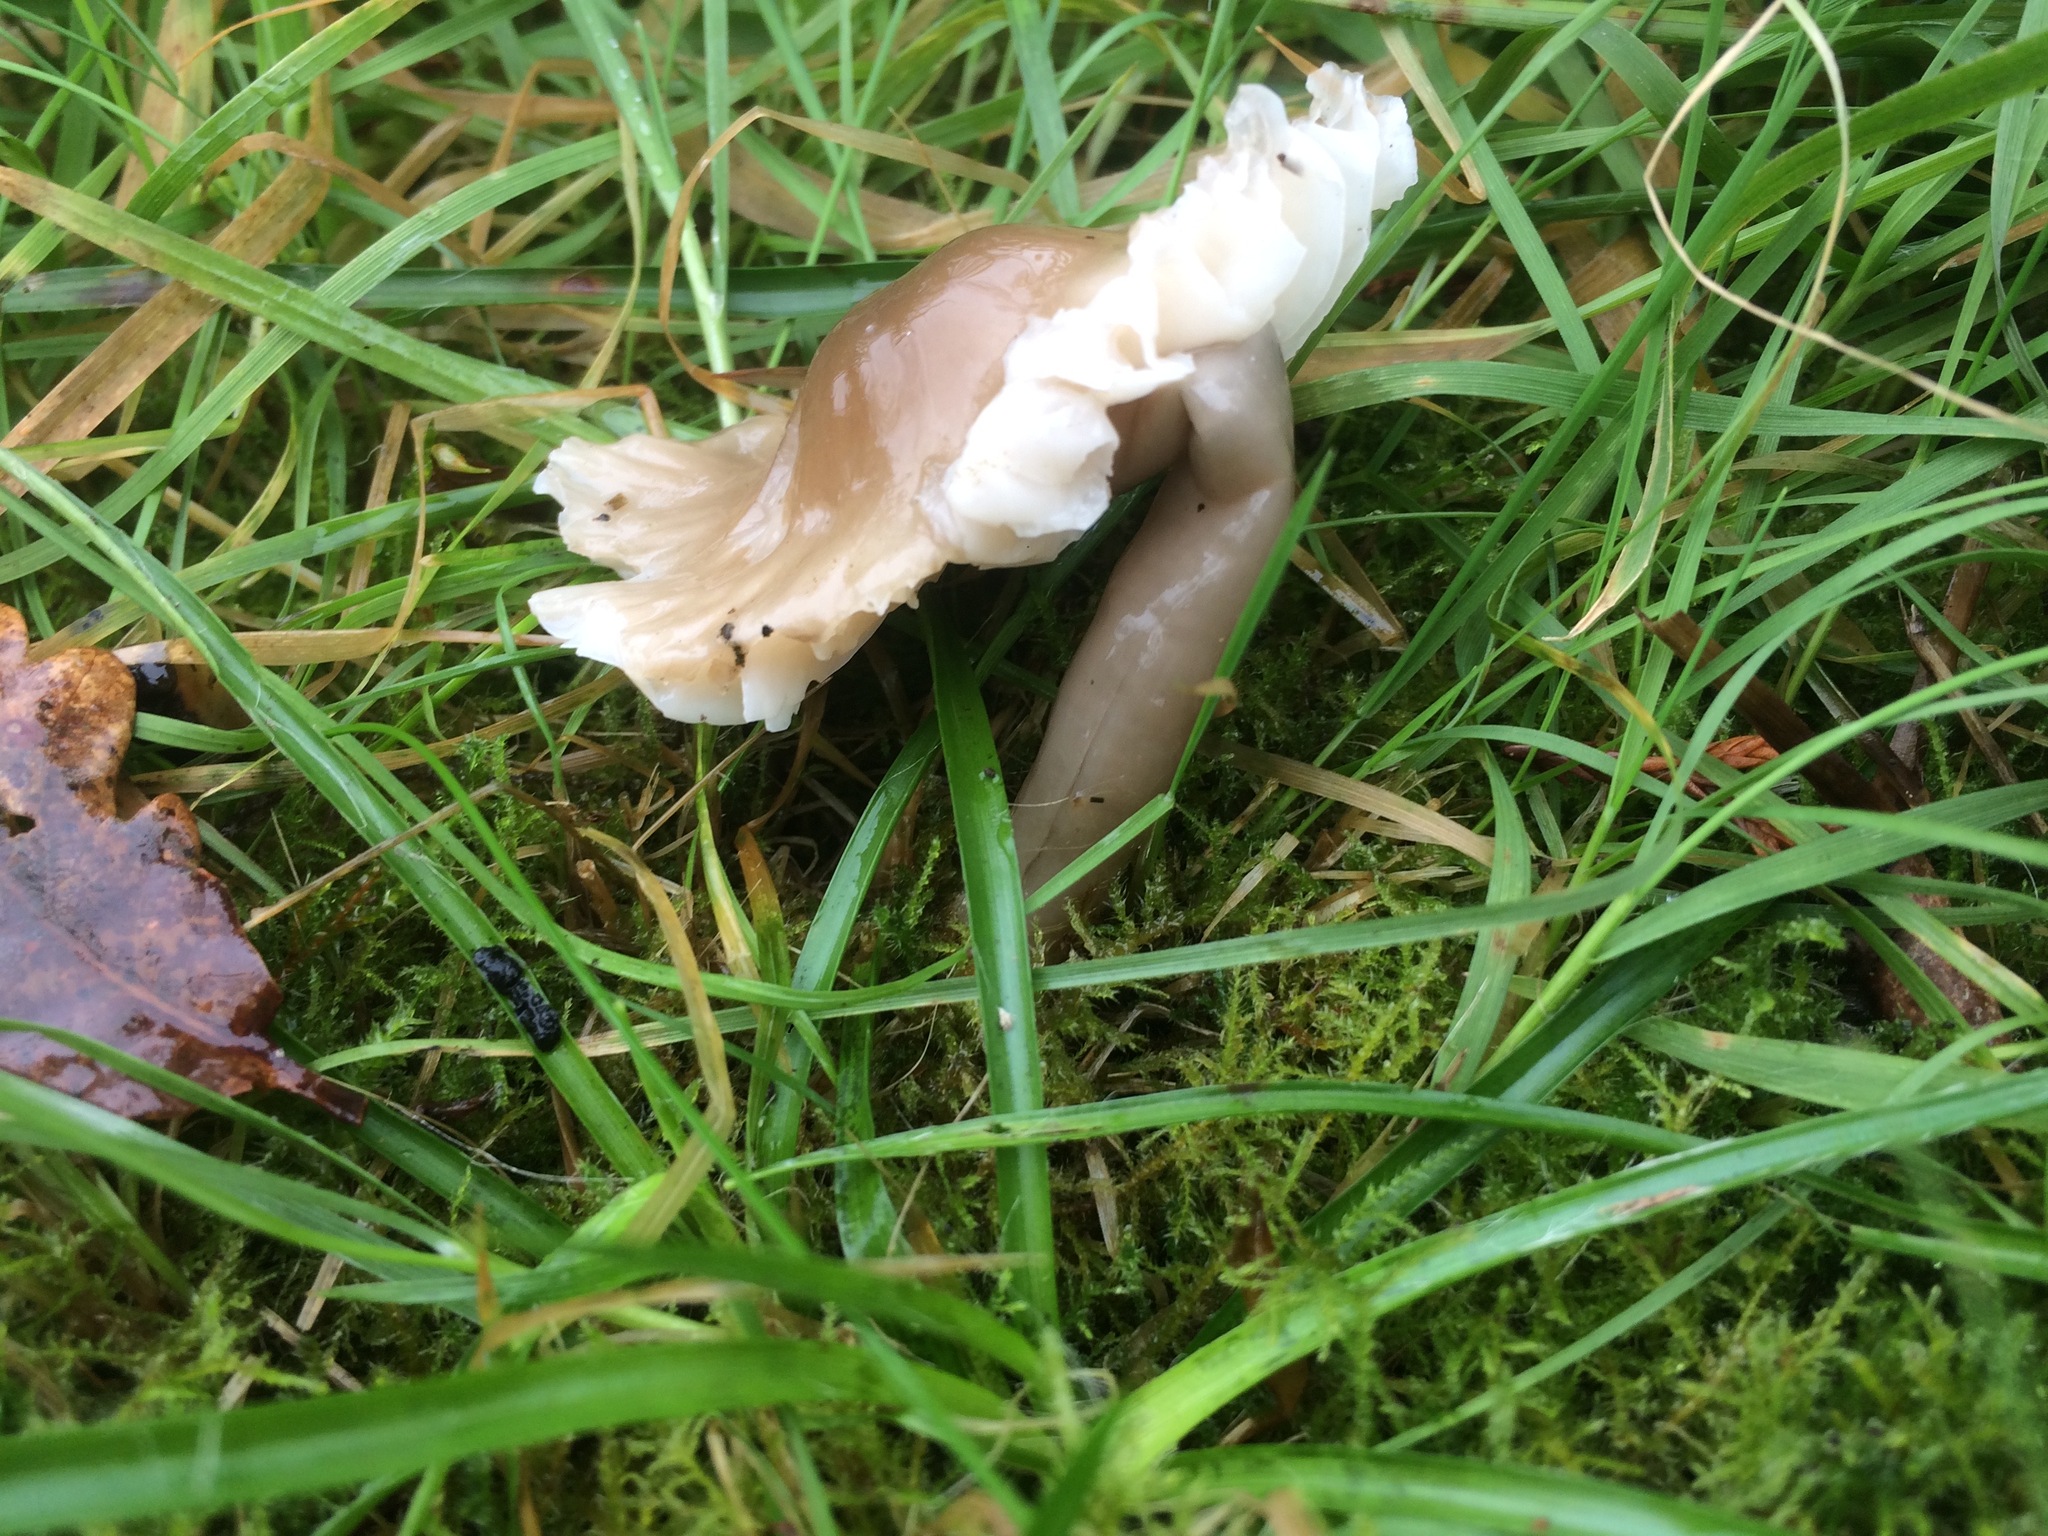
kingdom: Fungi
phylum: Basidiomycota
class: Agaricomycetes
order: Agaricales
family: Hygrophoraceae
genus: Gliophorus
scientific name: Gliophorus irrigatus
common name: Slimy waxcap
